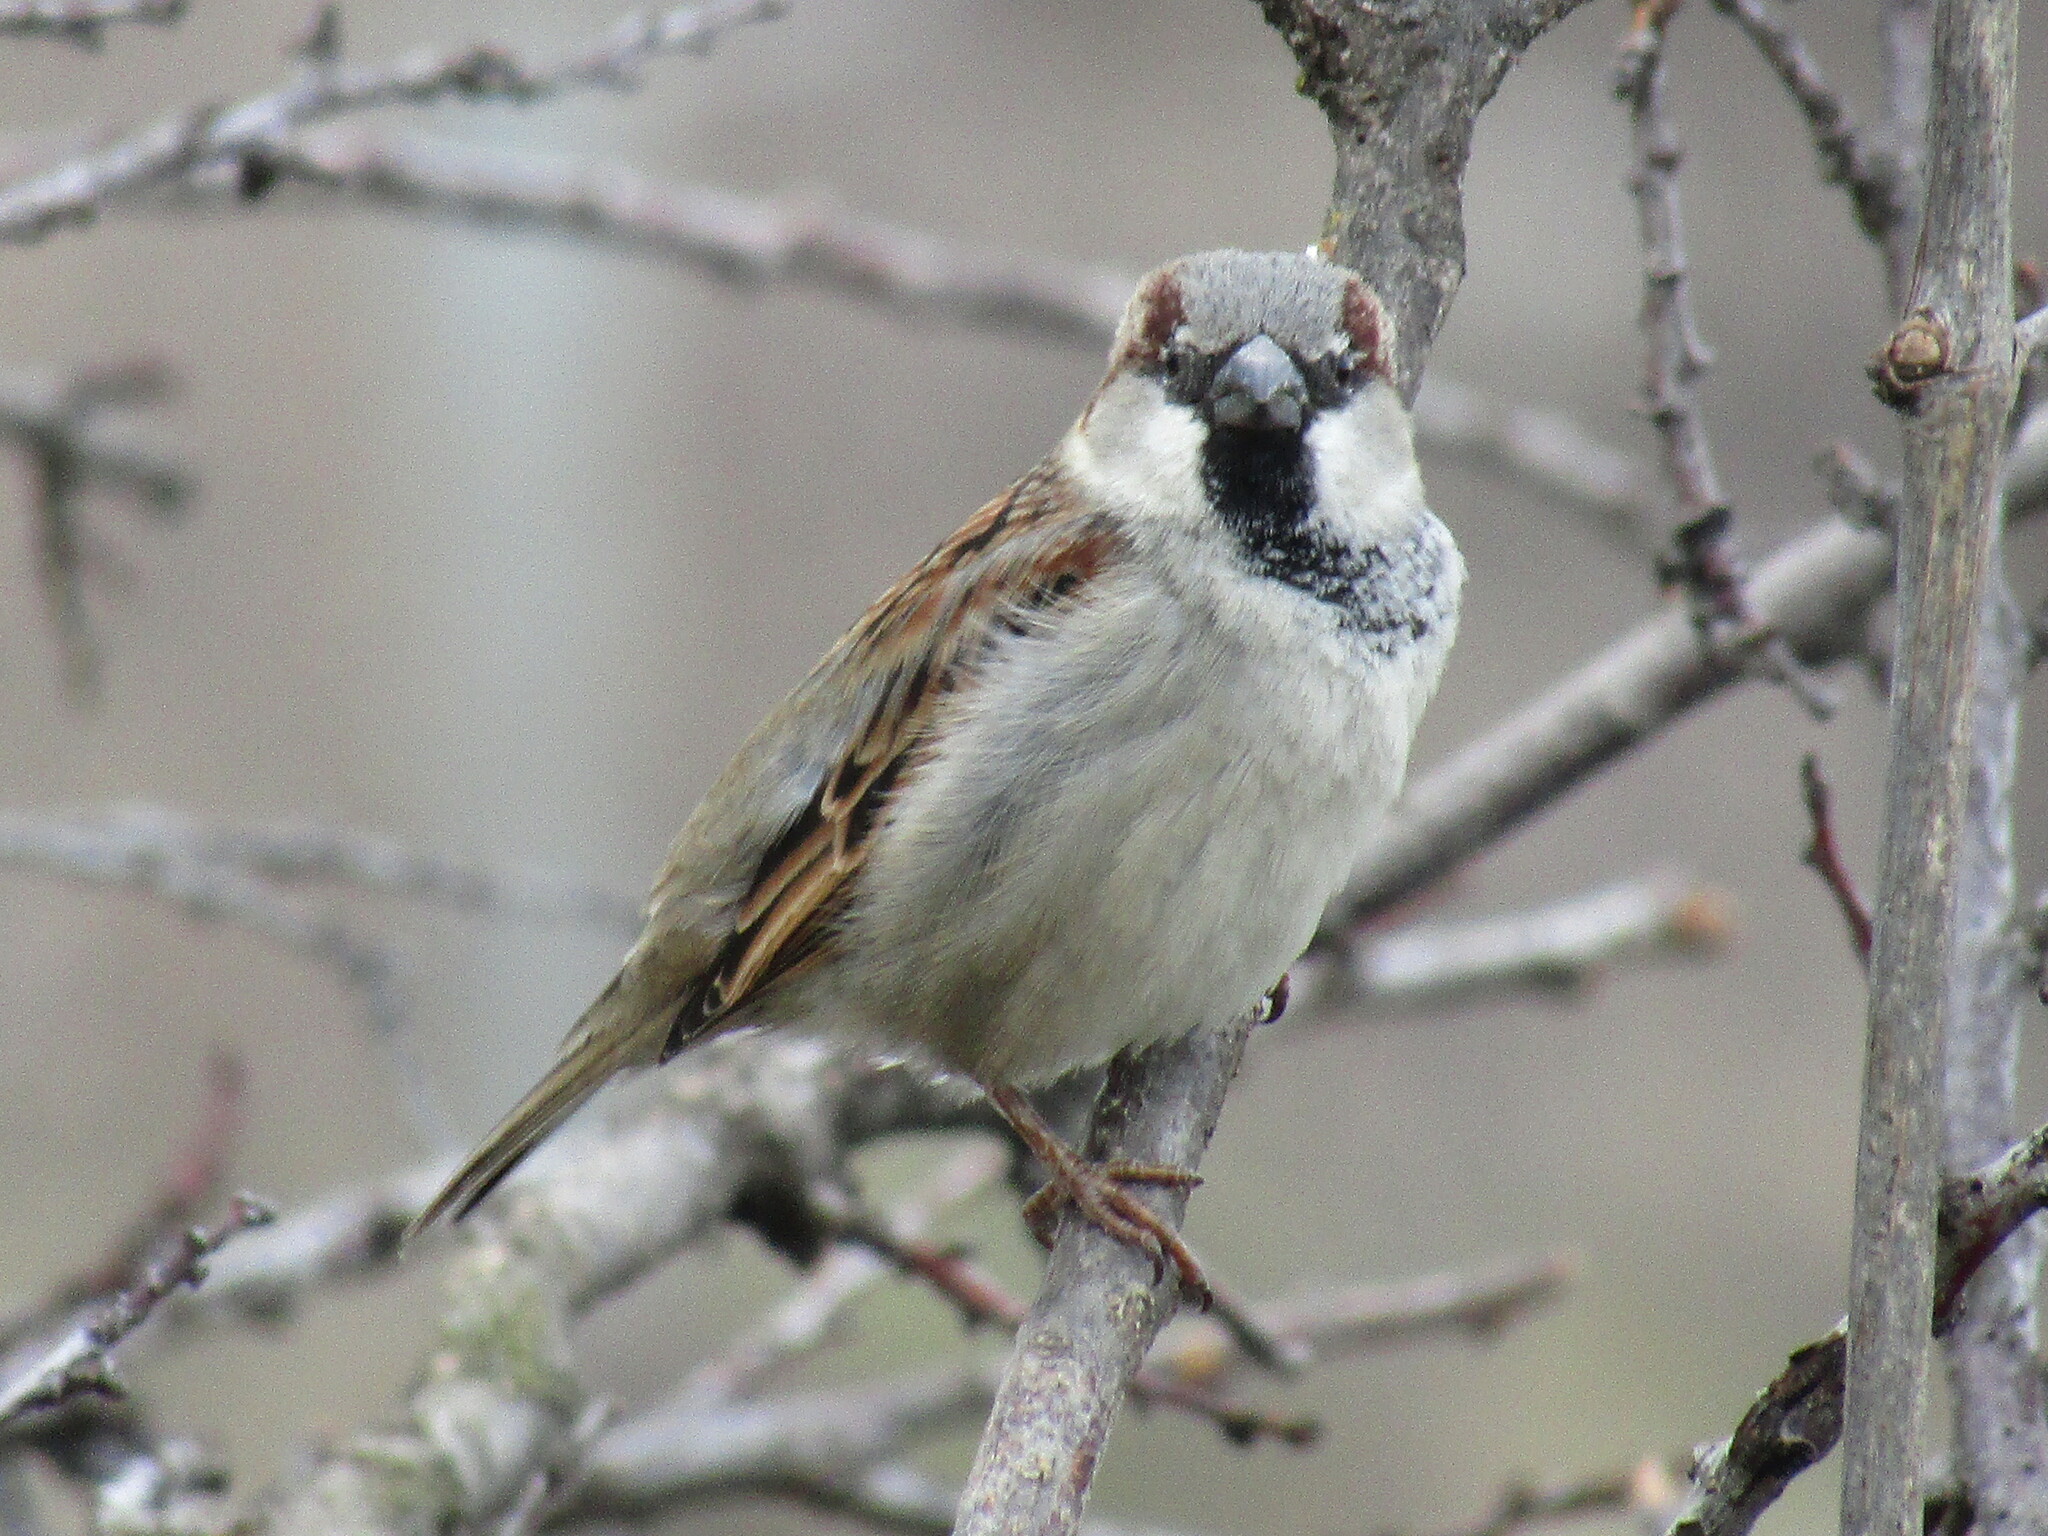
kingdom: Animalia
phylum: Chordata
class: Aves
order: Passeriformes
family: Passeridae
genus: Passer
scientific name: Passer domesticus
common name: House sparrow
